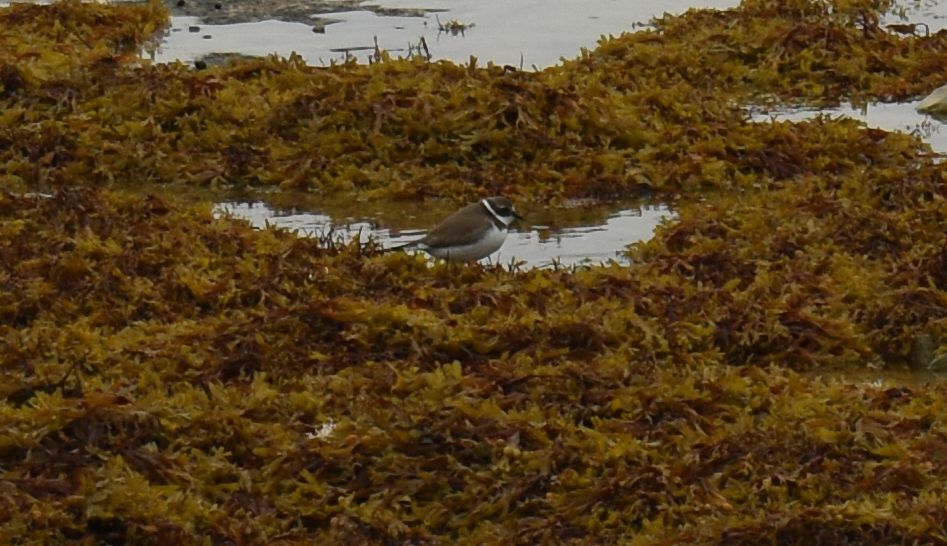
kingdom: Animalia
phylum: Chordata
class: Aves
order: Charadriiformes
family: Charadriidae
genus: Charadrius
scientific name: Charadrius semipalmatus
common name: Semipalmated plover
